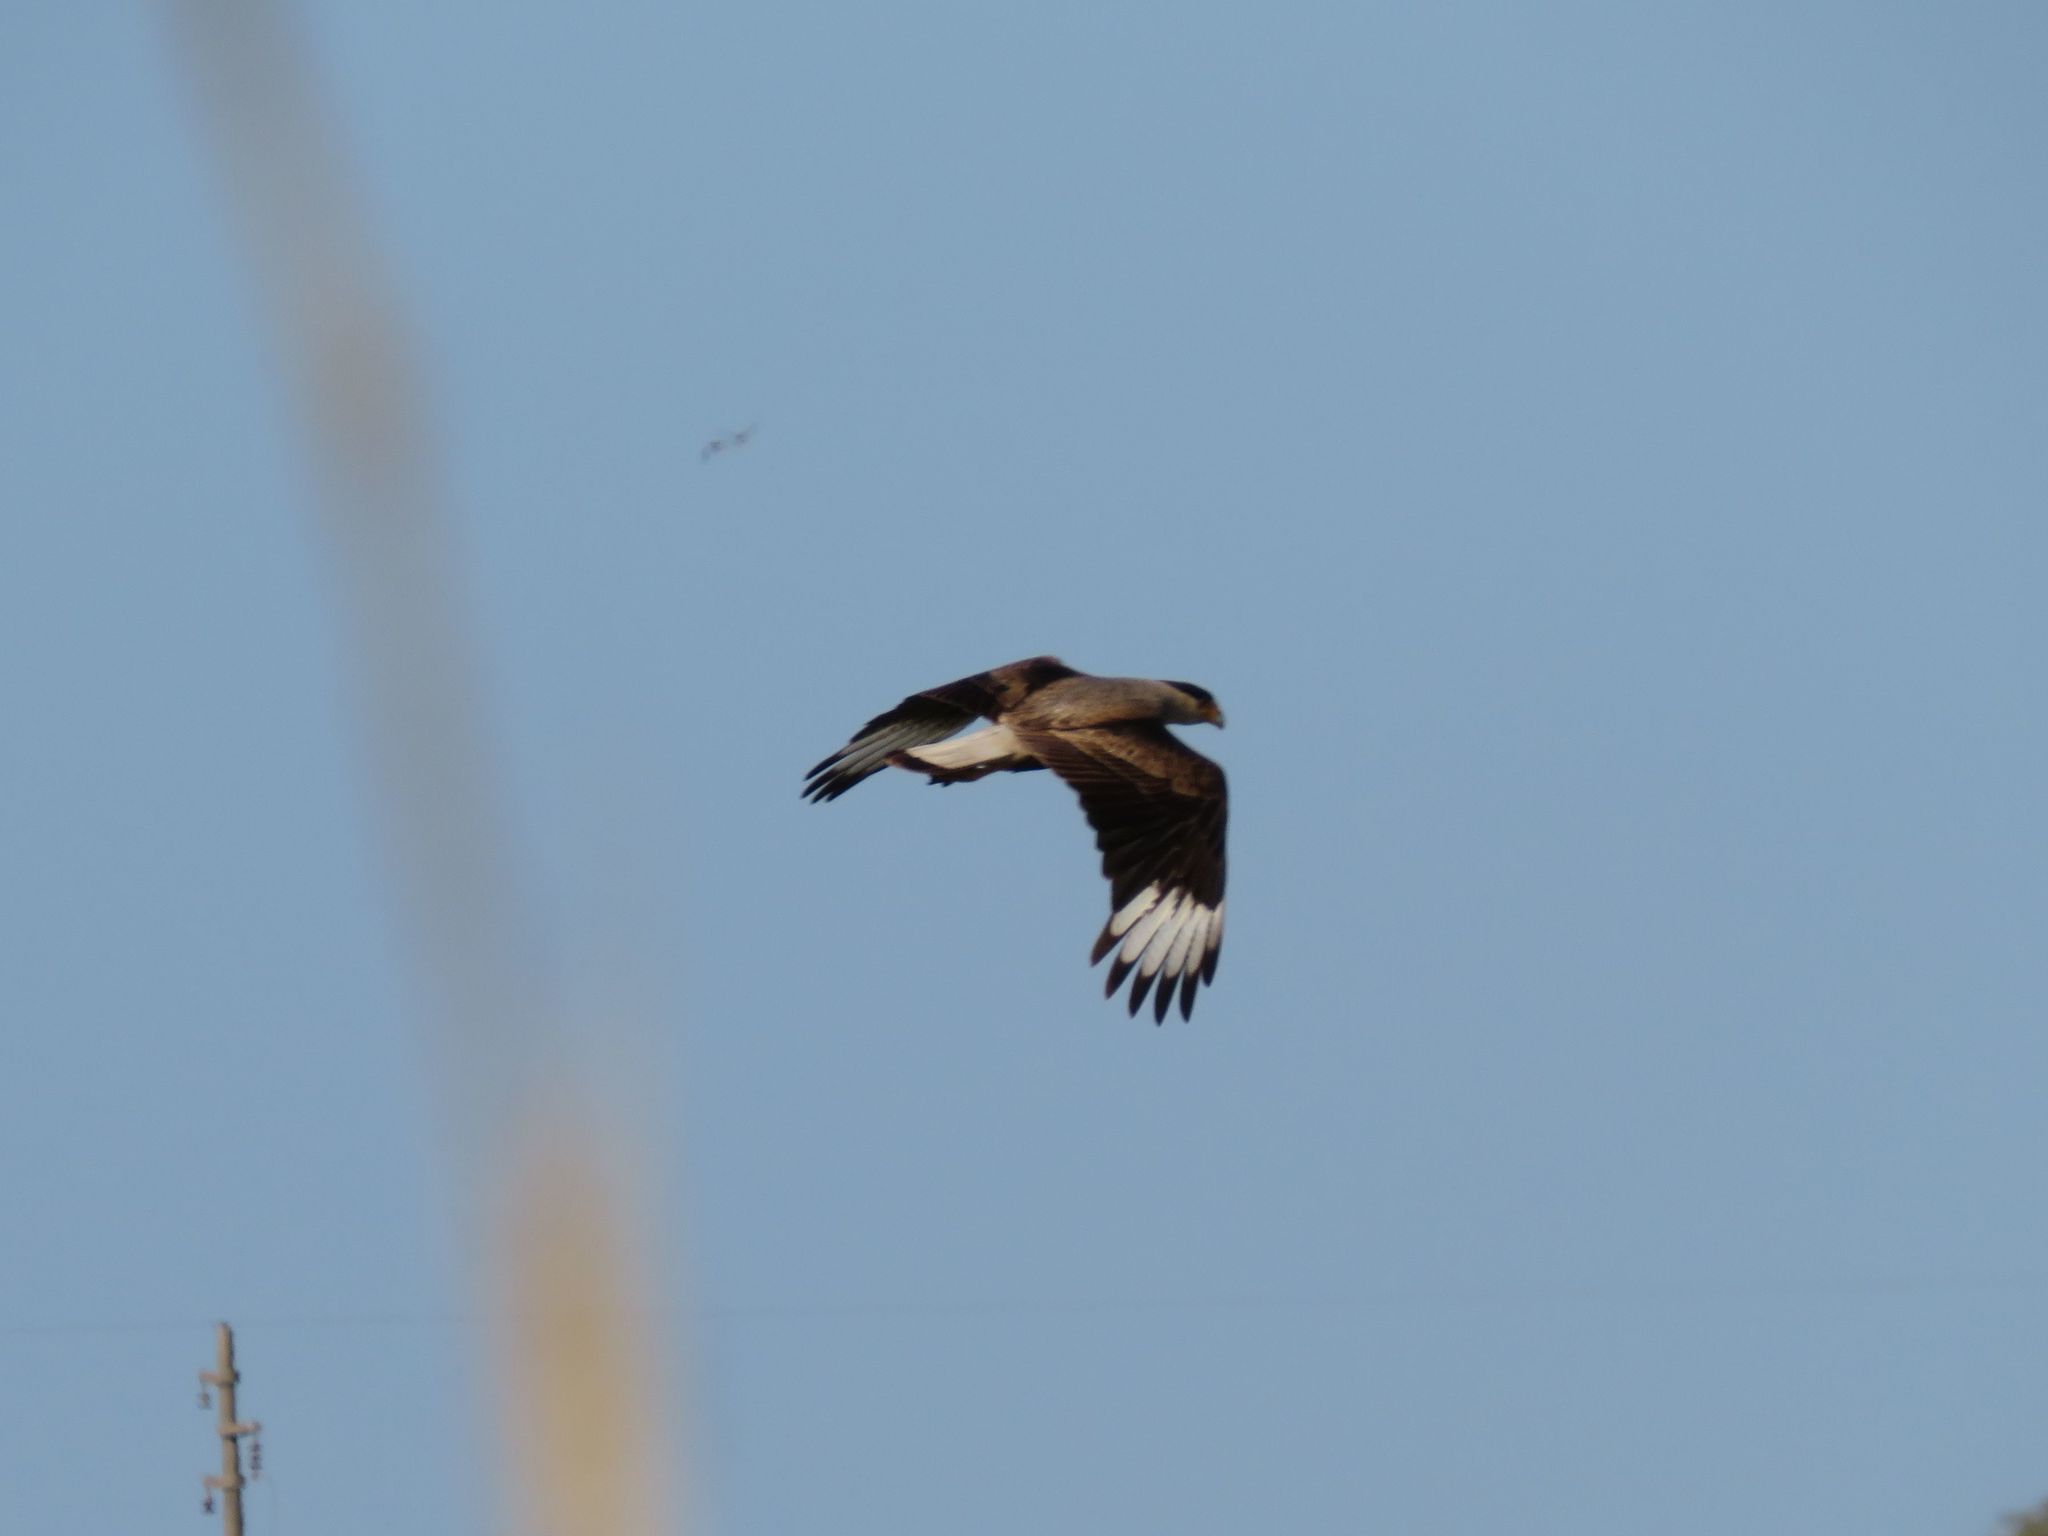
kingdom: Animalia
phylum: Chordata
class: Aves
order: Falconiformes
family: Falconidae
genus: Caracara
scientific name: Caracara plancus
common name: Southern caracara
